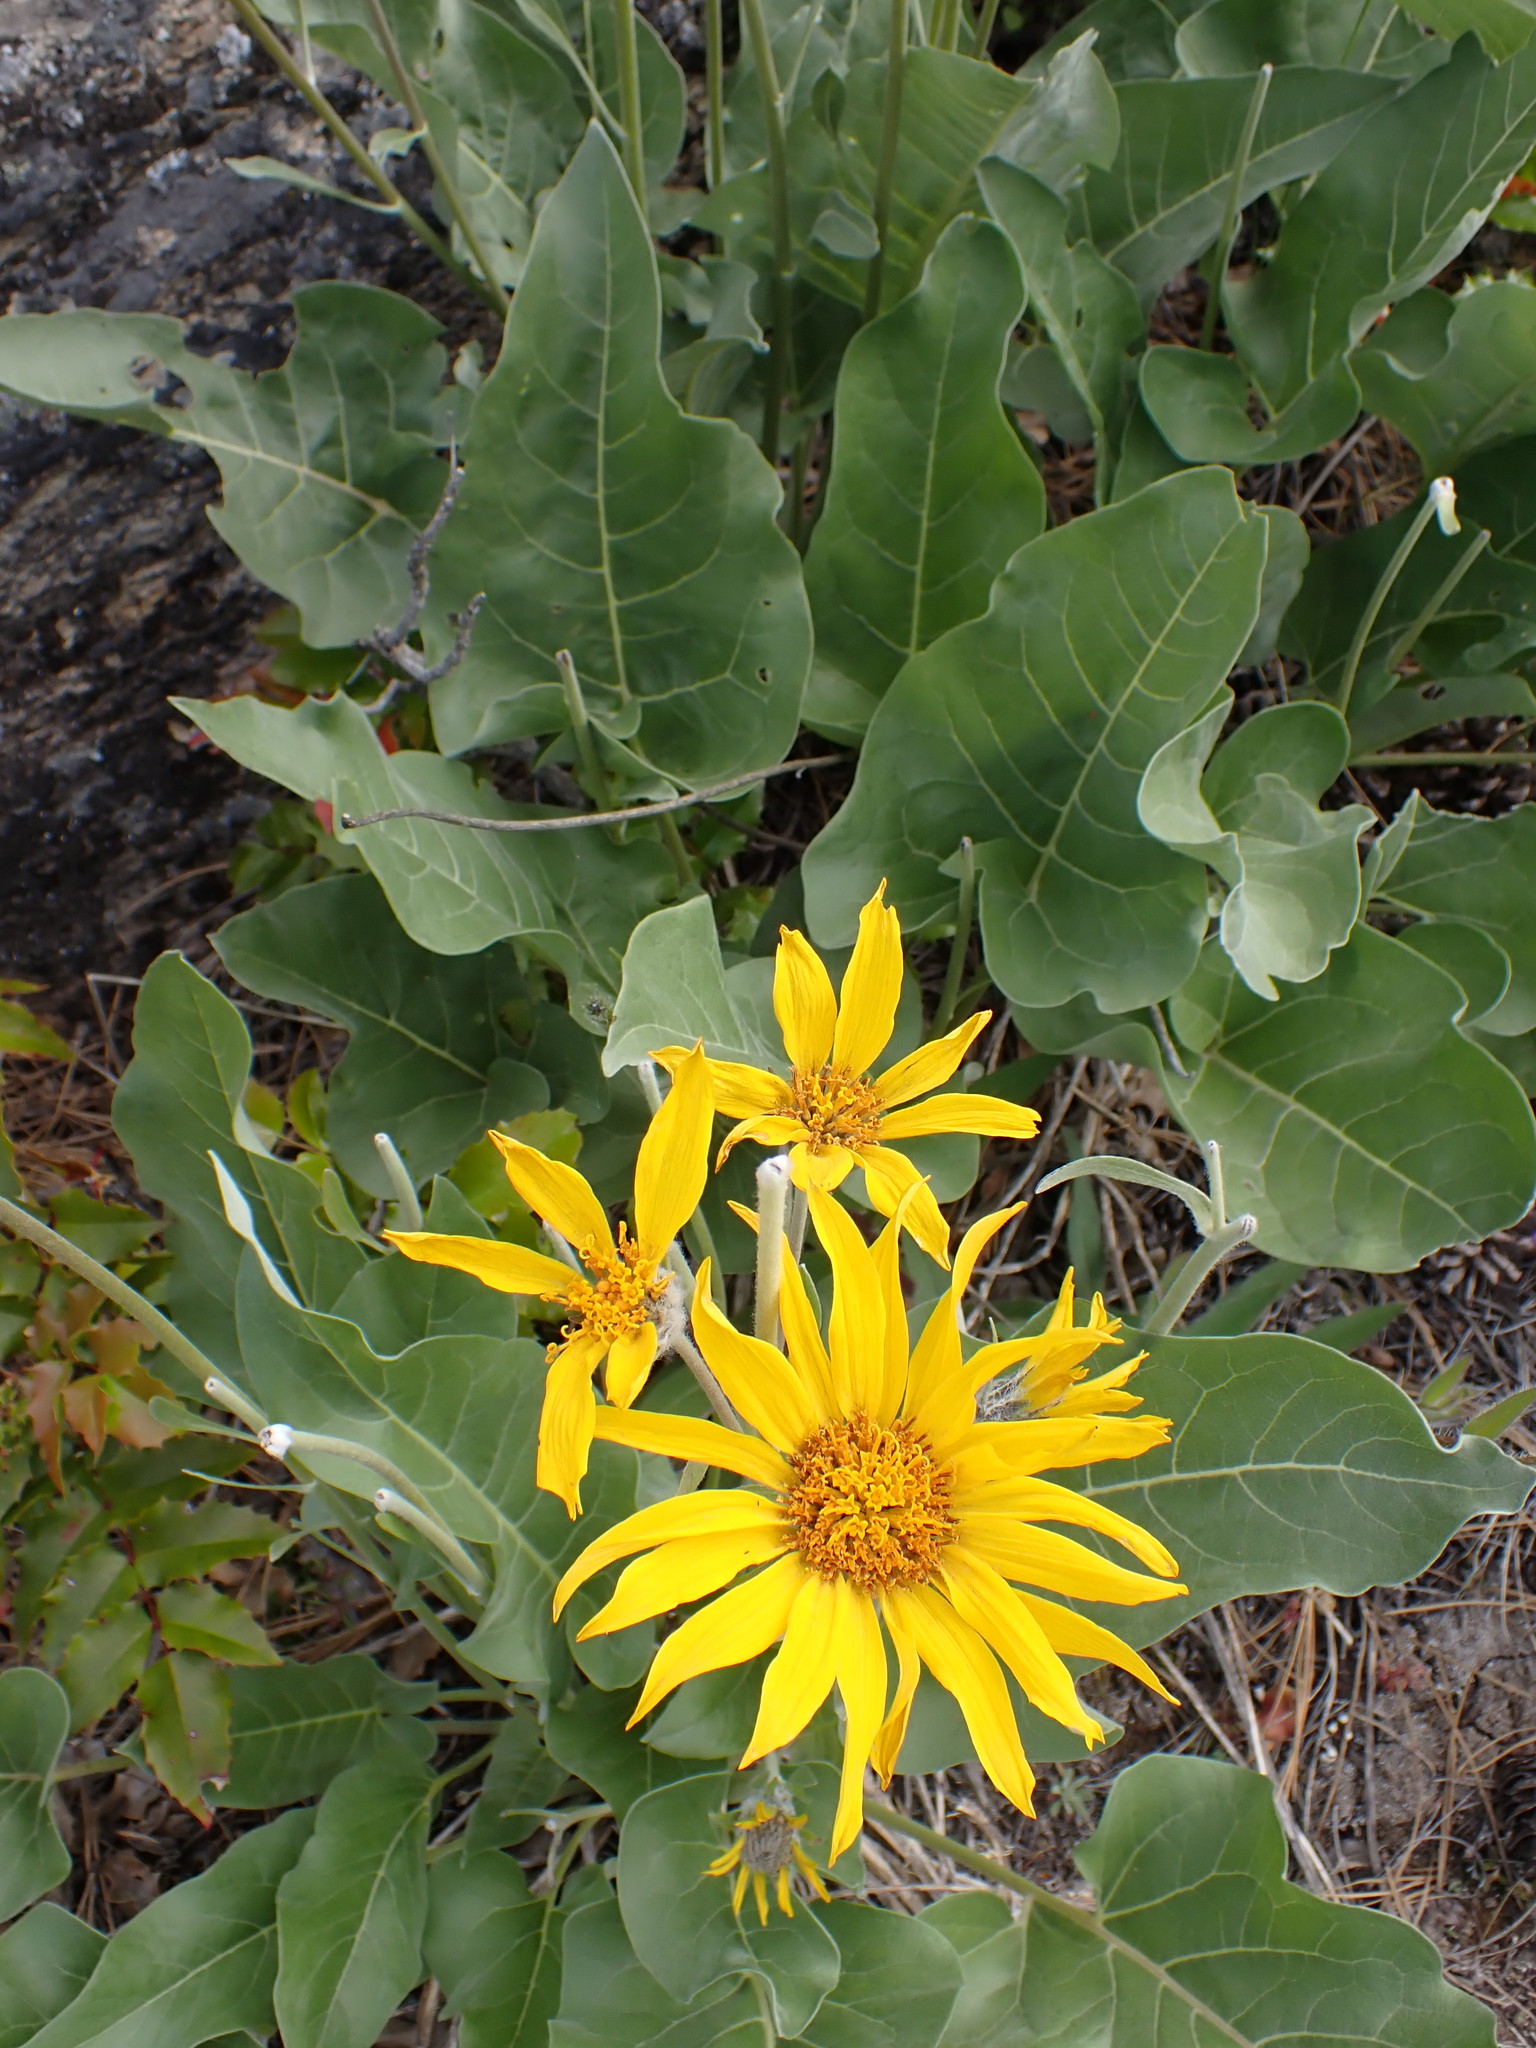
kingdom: Plantae
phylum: Tracheophyta
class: Magnoliopsida
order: Asterales
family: Asteraceae
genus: Wyethia
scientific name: Wyethia sagittata
